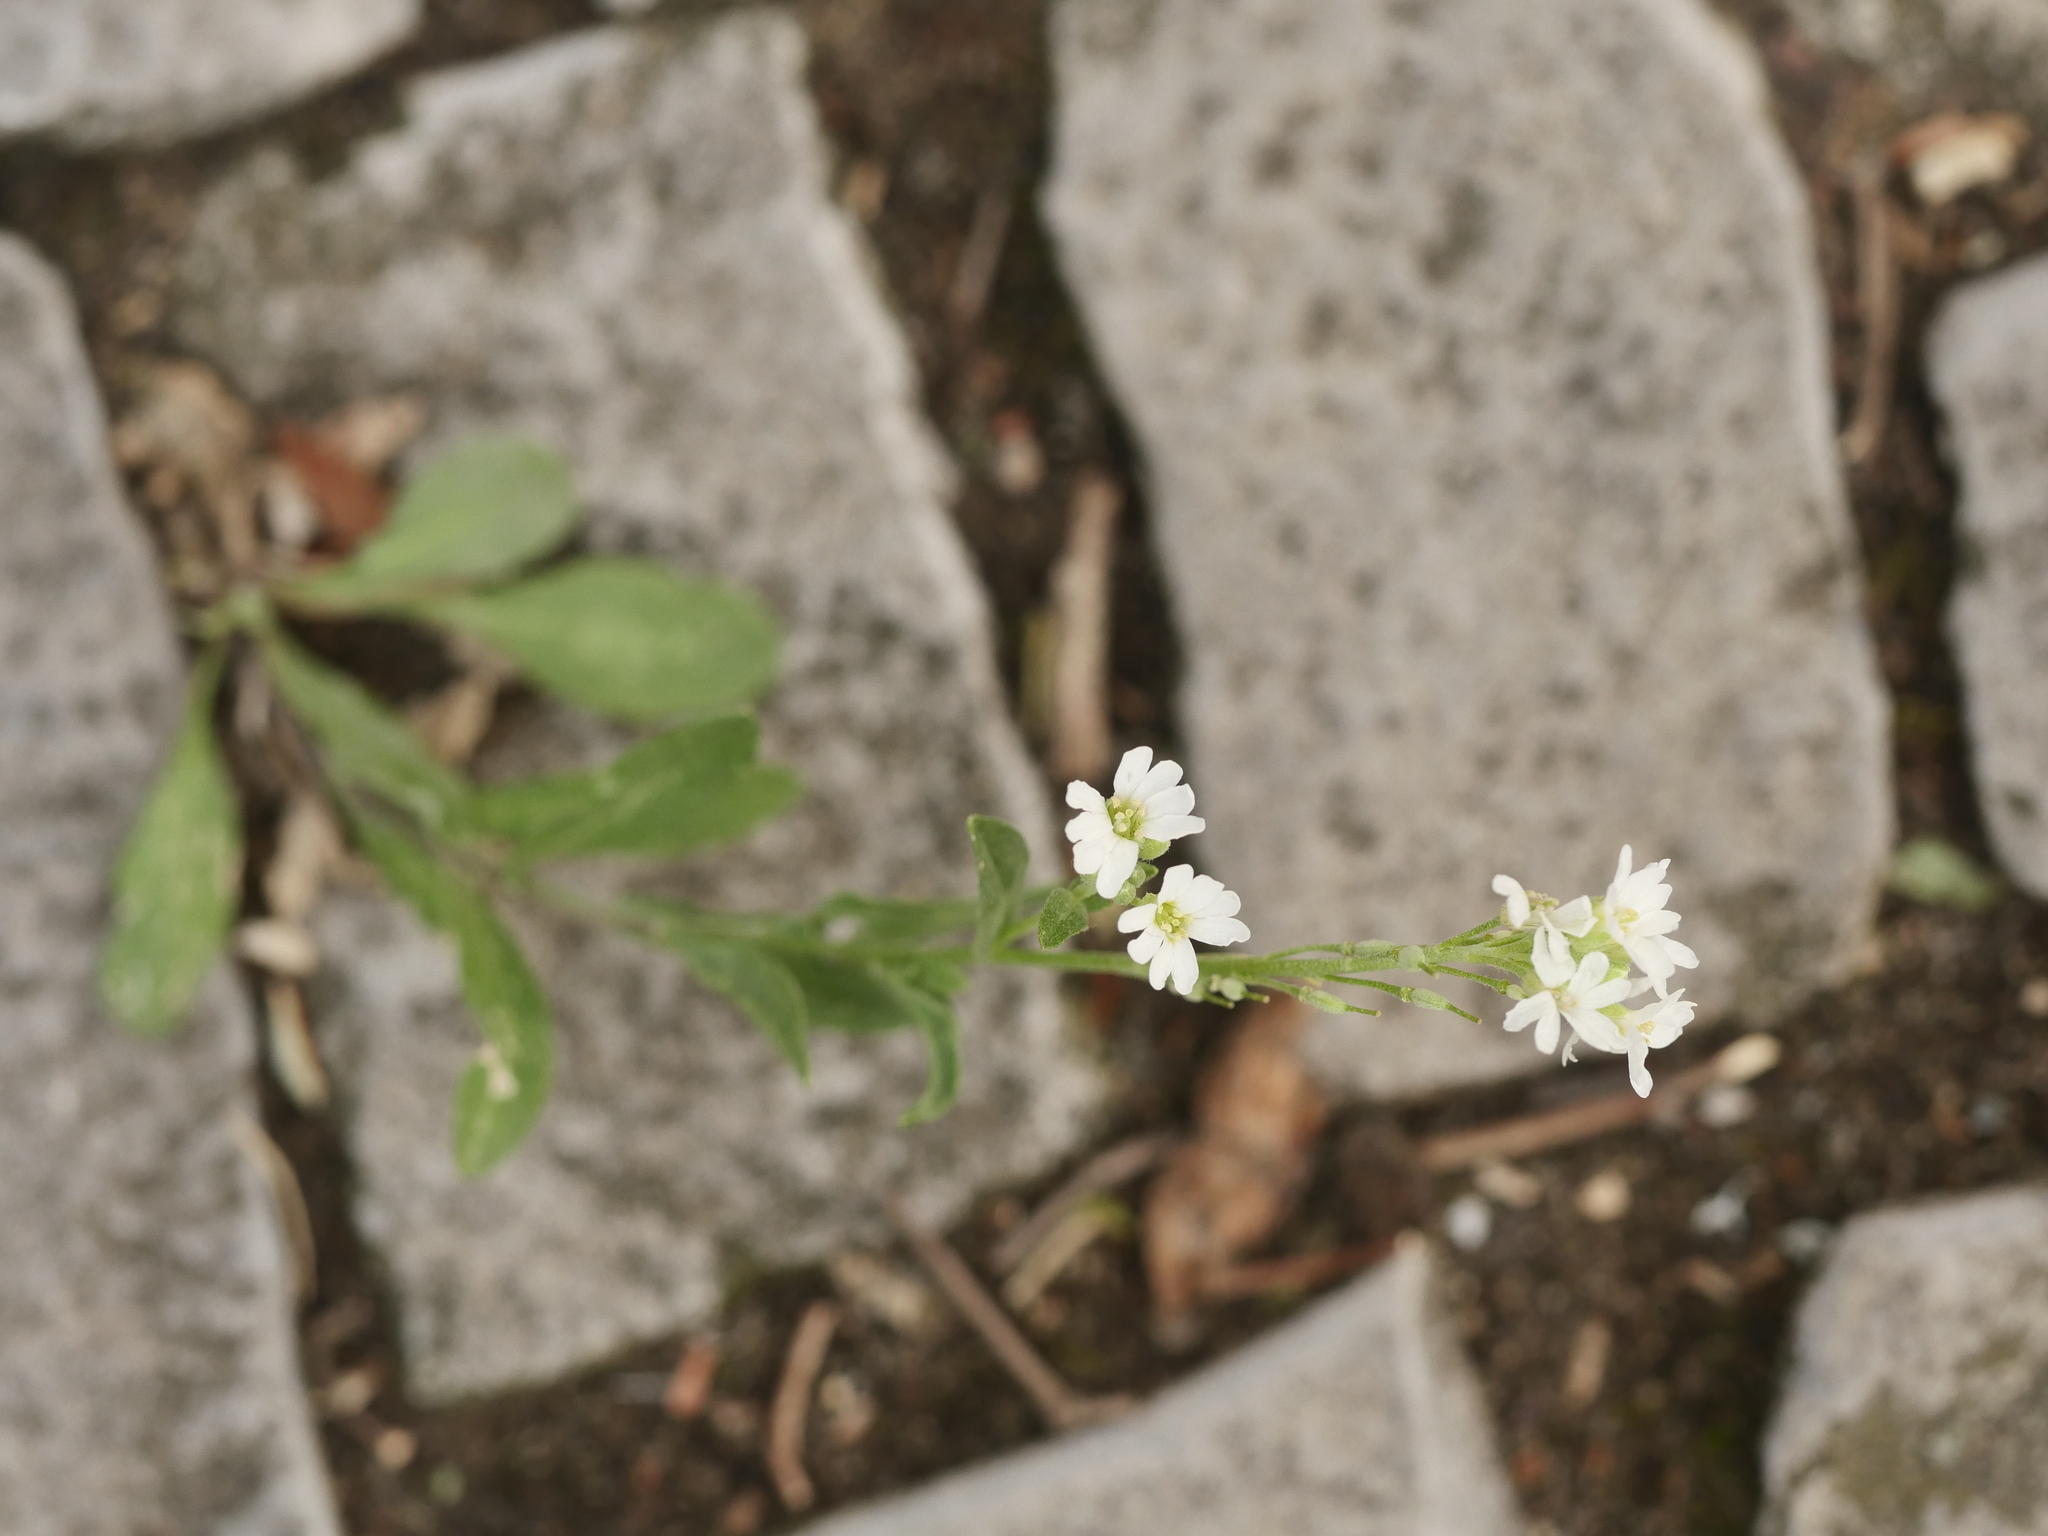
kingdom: Plantae
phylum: Tracheophyta
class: Magnoliopsida
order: Brassicales
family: Brassicaceae
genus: Berteroa
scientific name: Berteroa incana
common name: Hoary alison
